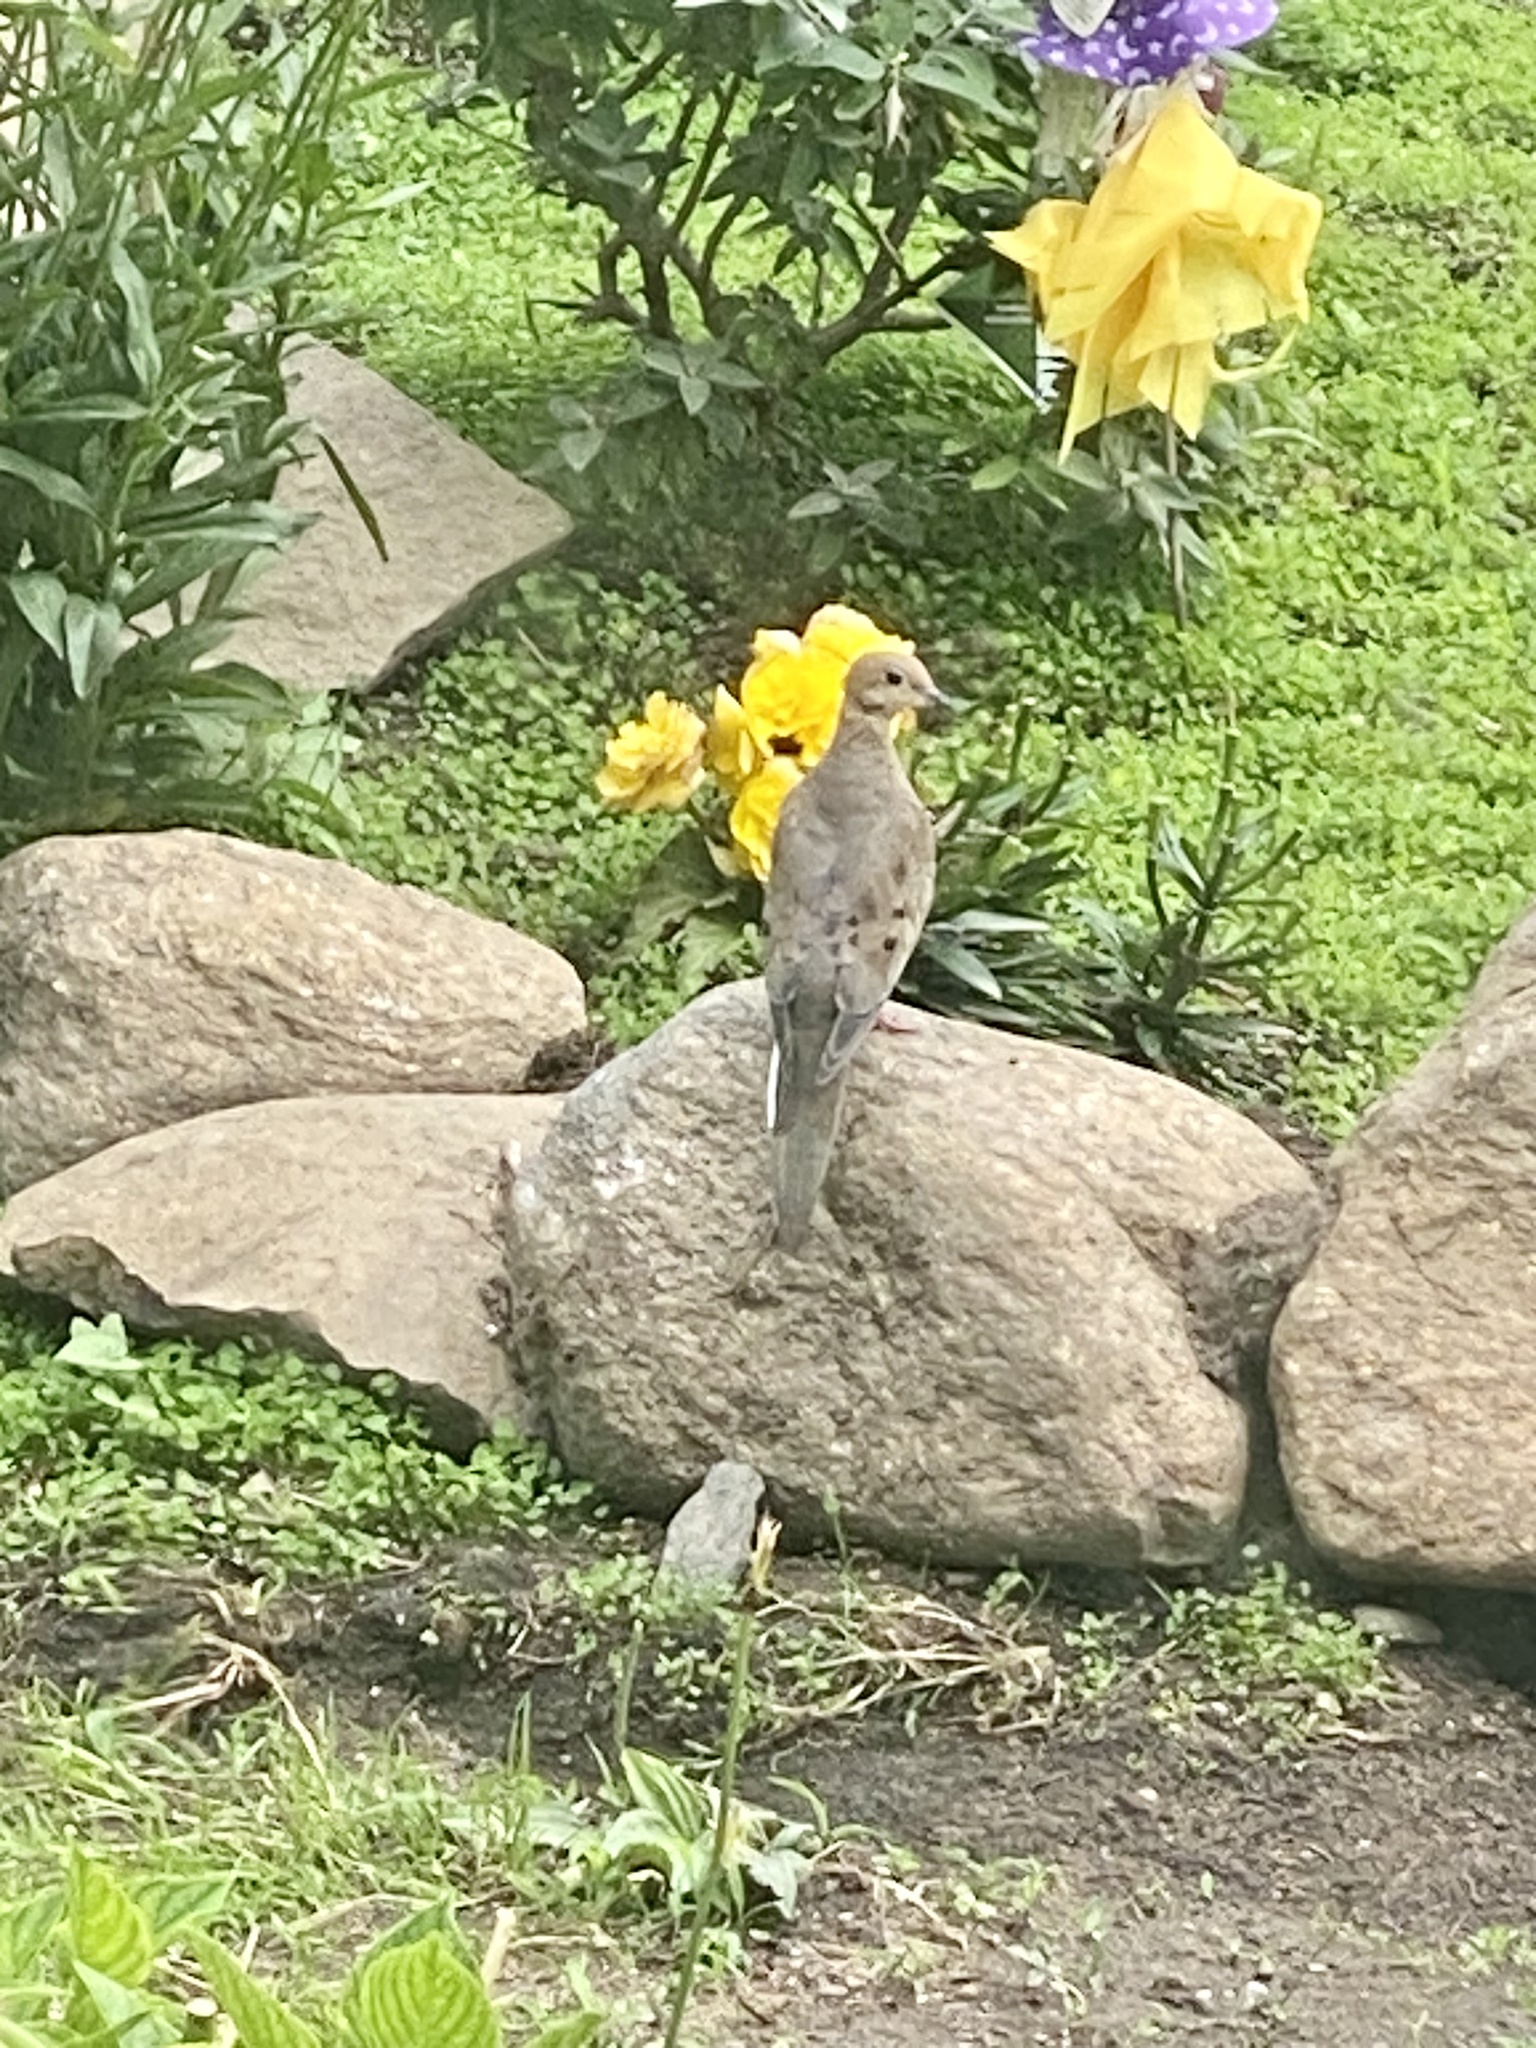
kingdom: Animalia
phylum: Chordata
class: Aves
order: Columbiformes
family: Columbidae
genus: Zenaida
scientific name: Zenaida macroura
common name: Mourning dove
